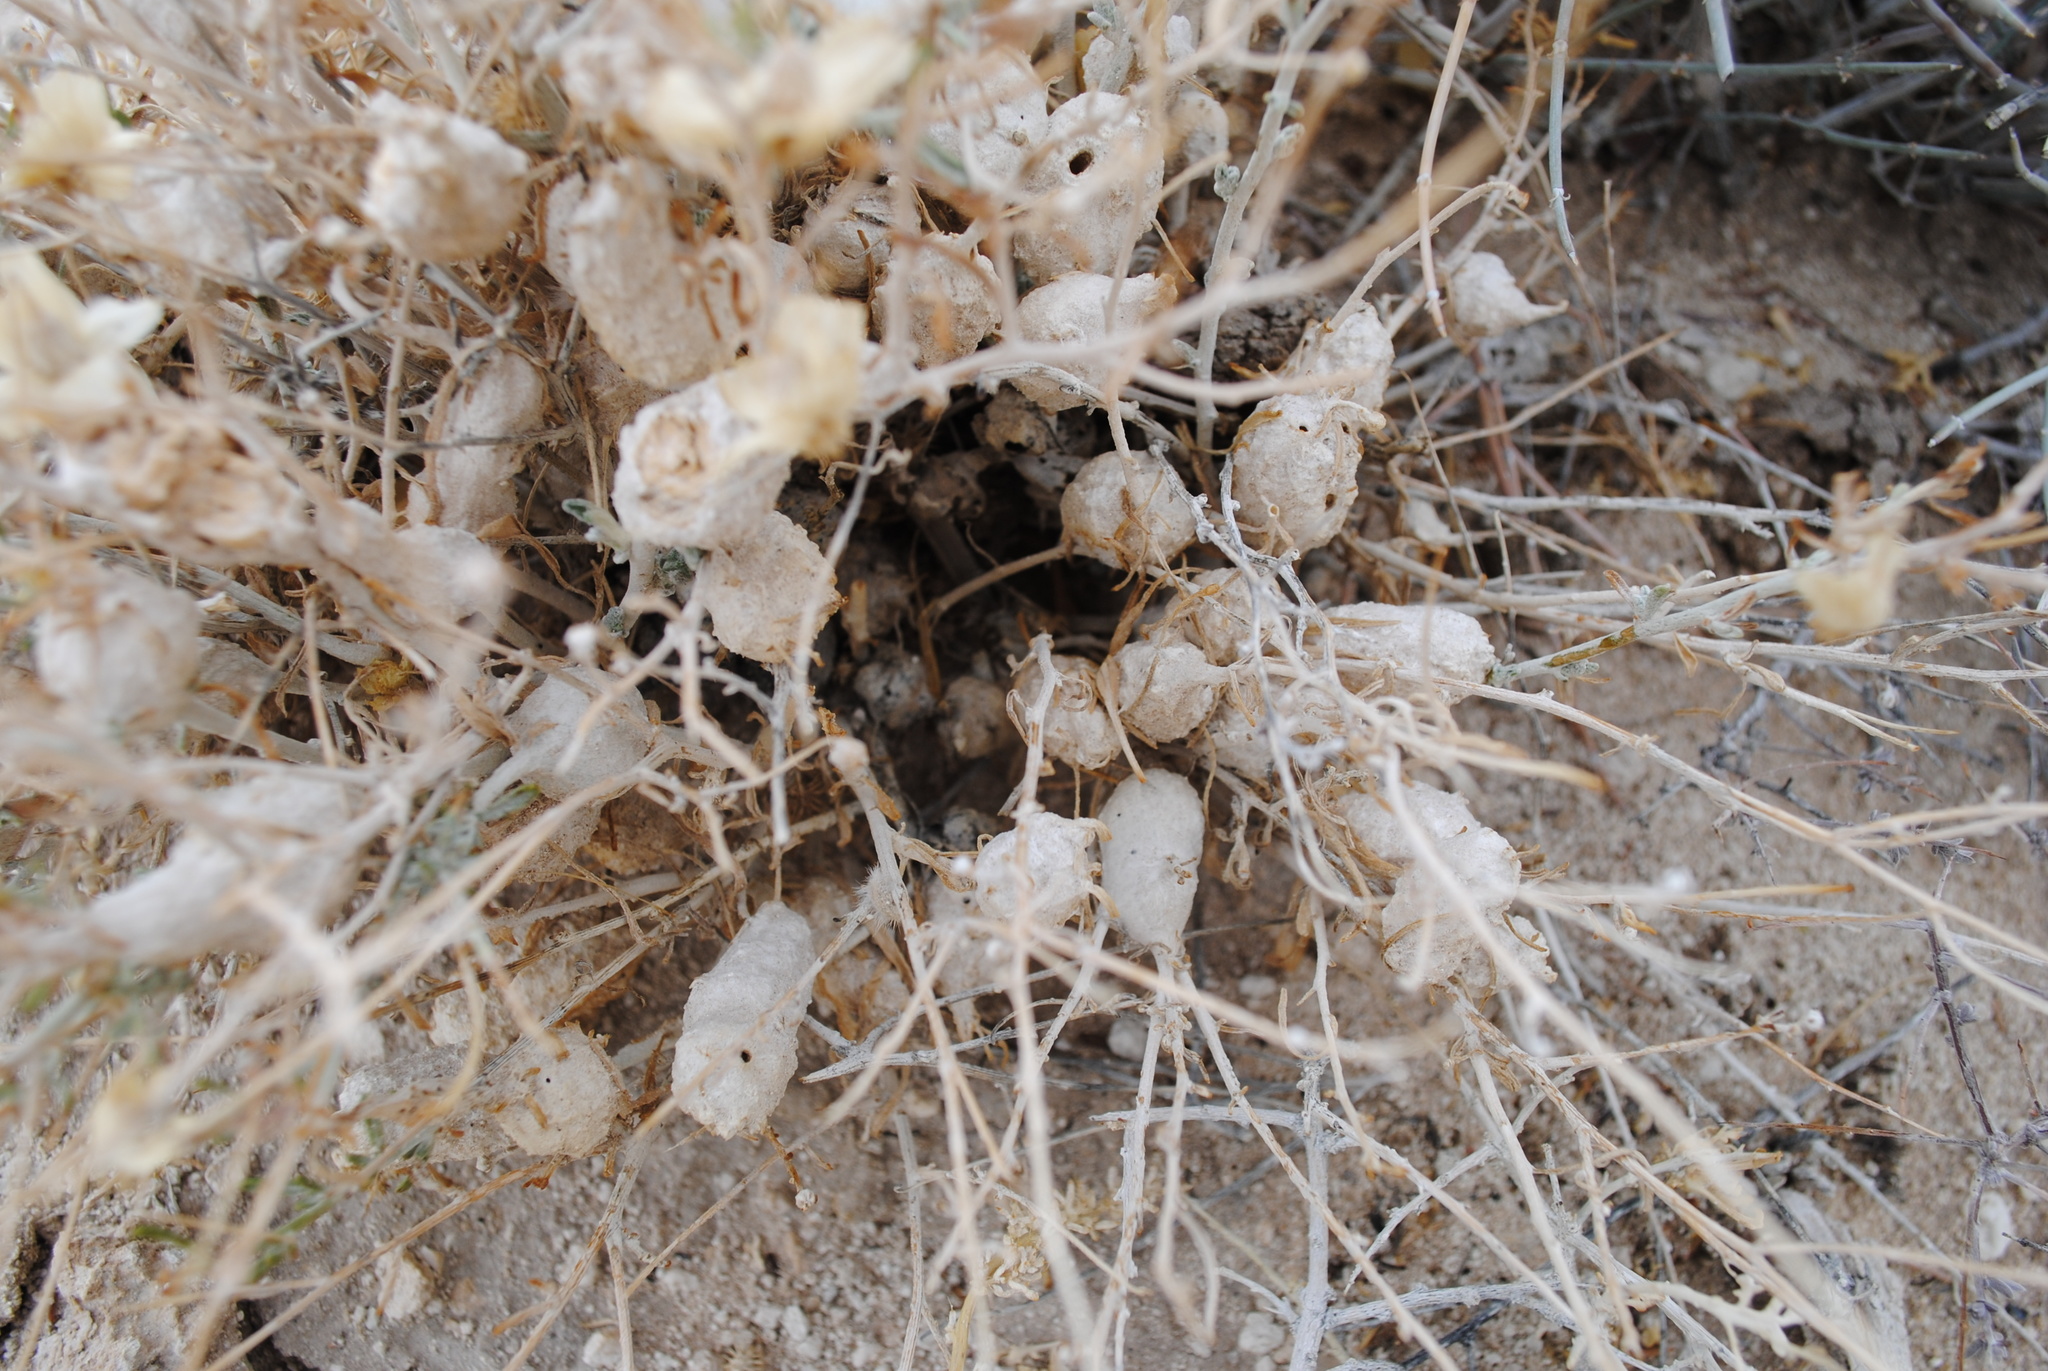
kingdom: Plantae
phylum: Tracheophyta
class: Magnoliopsida
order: Asterales
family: Asteraceae
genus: Psilostrophe
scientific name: Psilostrophe cooperi
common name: White-stem paper-flower
